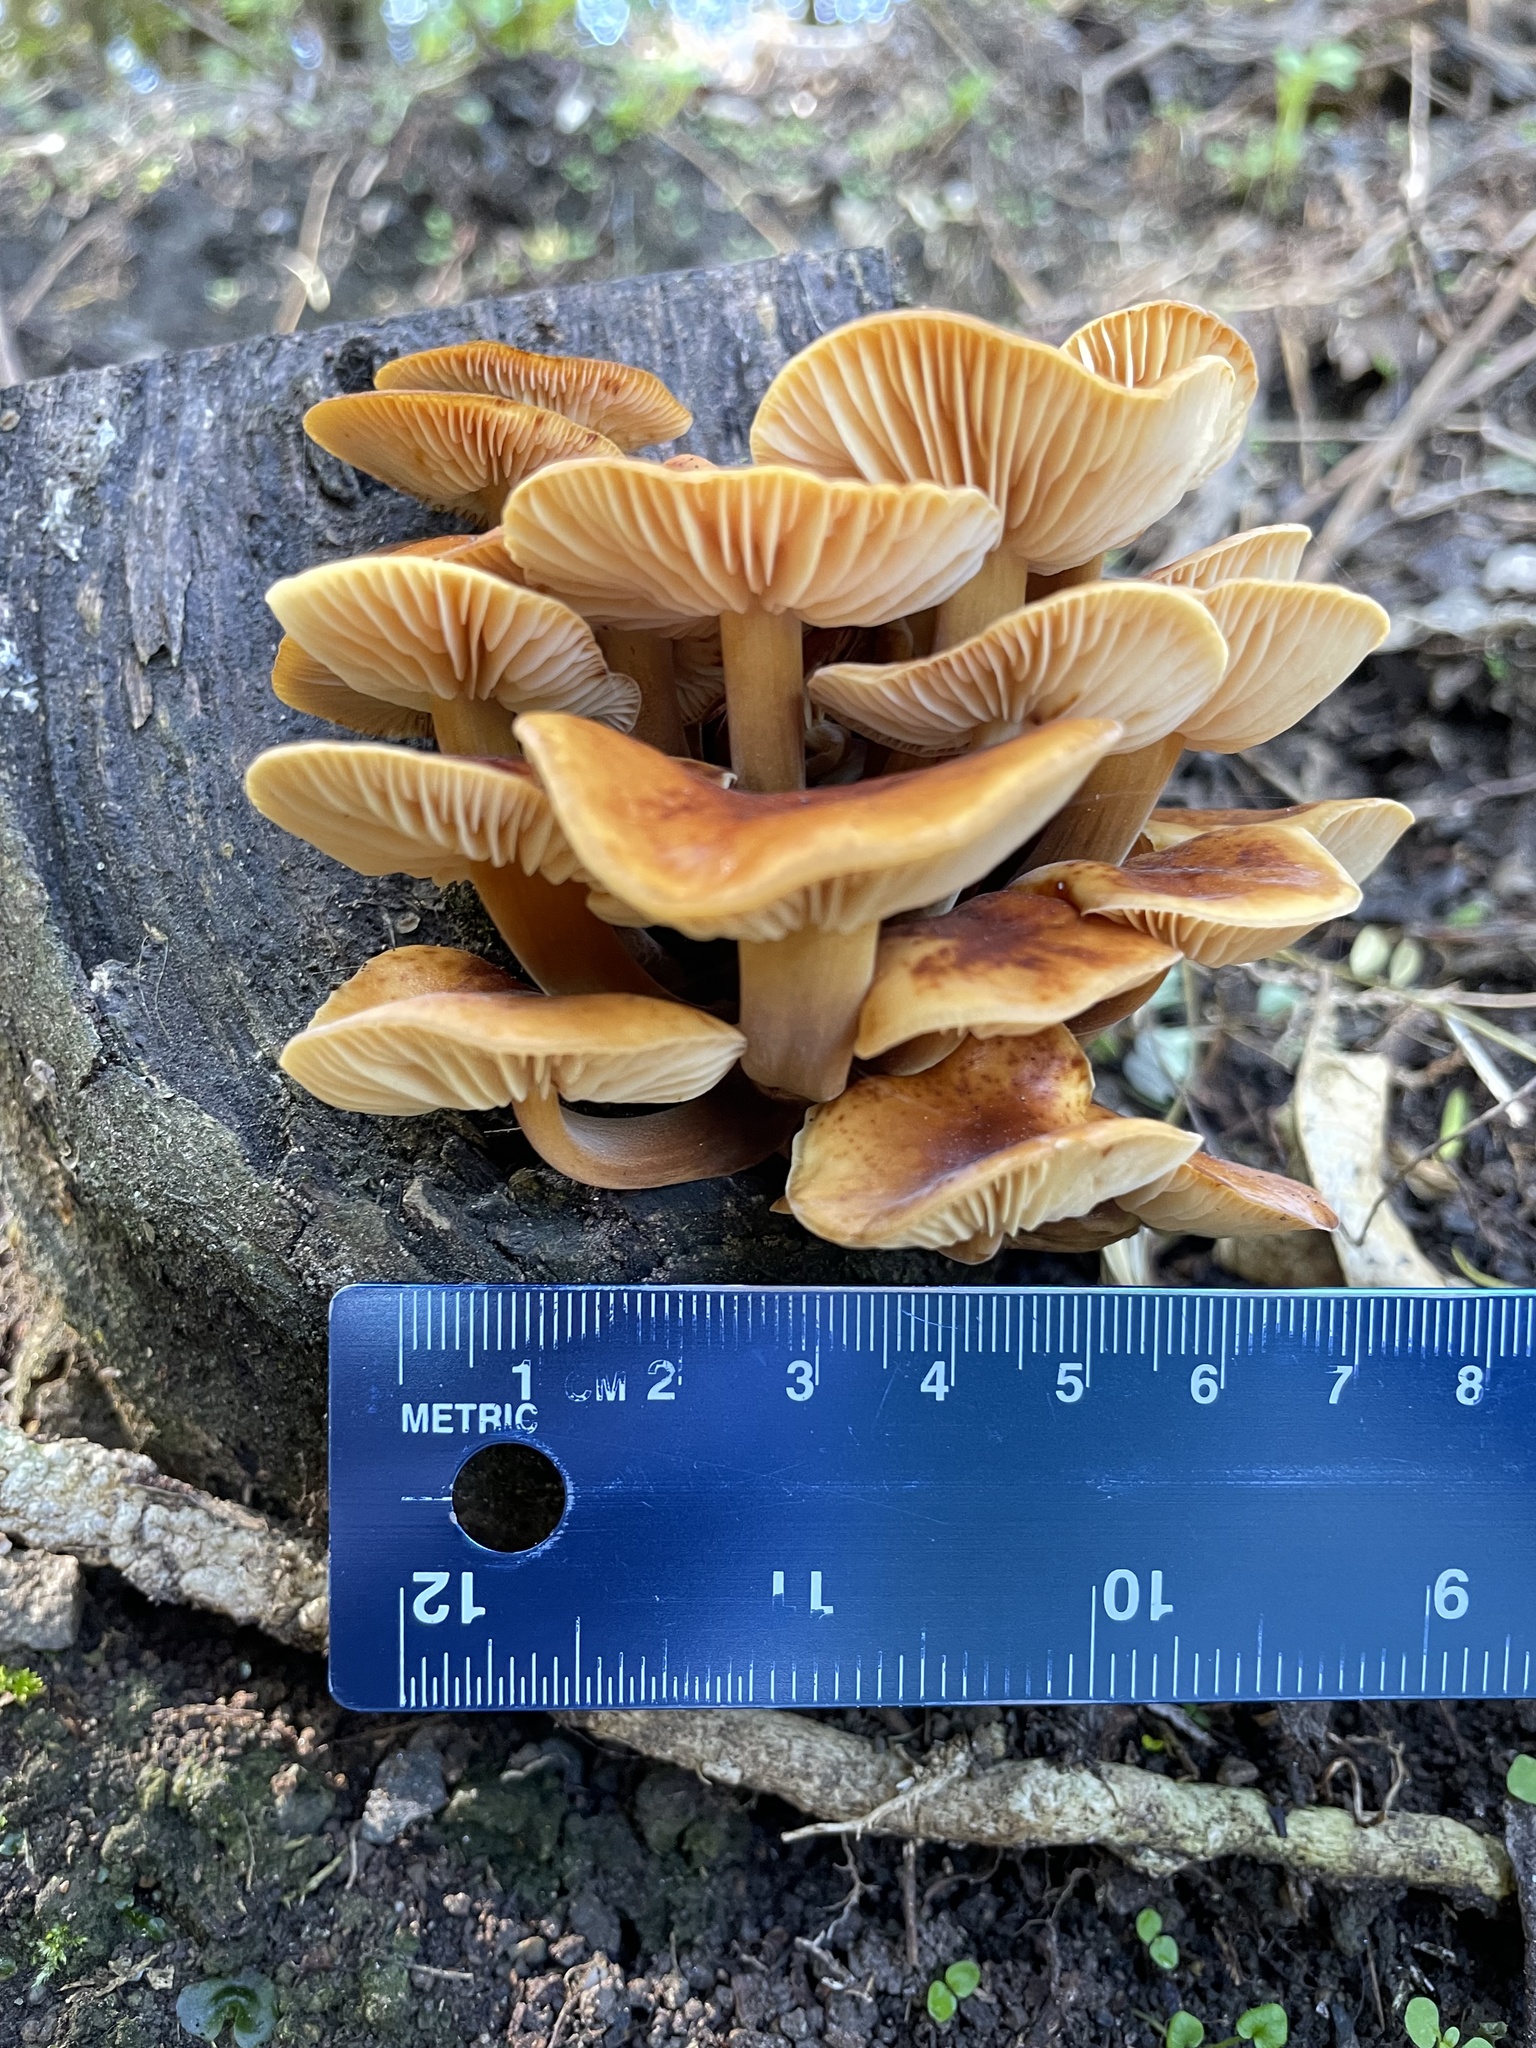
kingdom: Fungi
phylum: Basidiomycota
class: Agaricomycetes
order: Agaricales
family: Physalacriaceae
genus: Flammulina
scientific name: Flammulina velutipes
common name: Velvet shank
